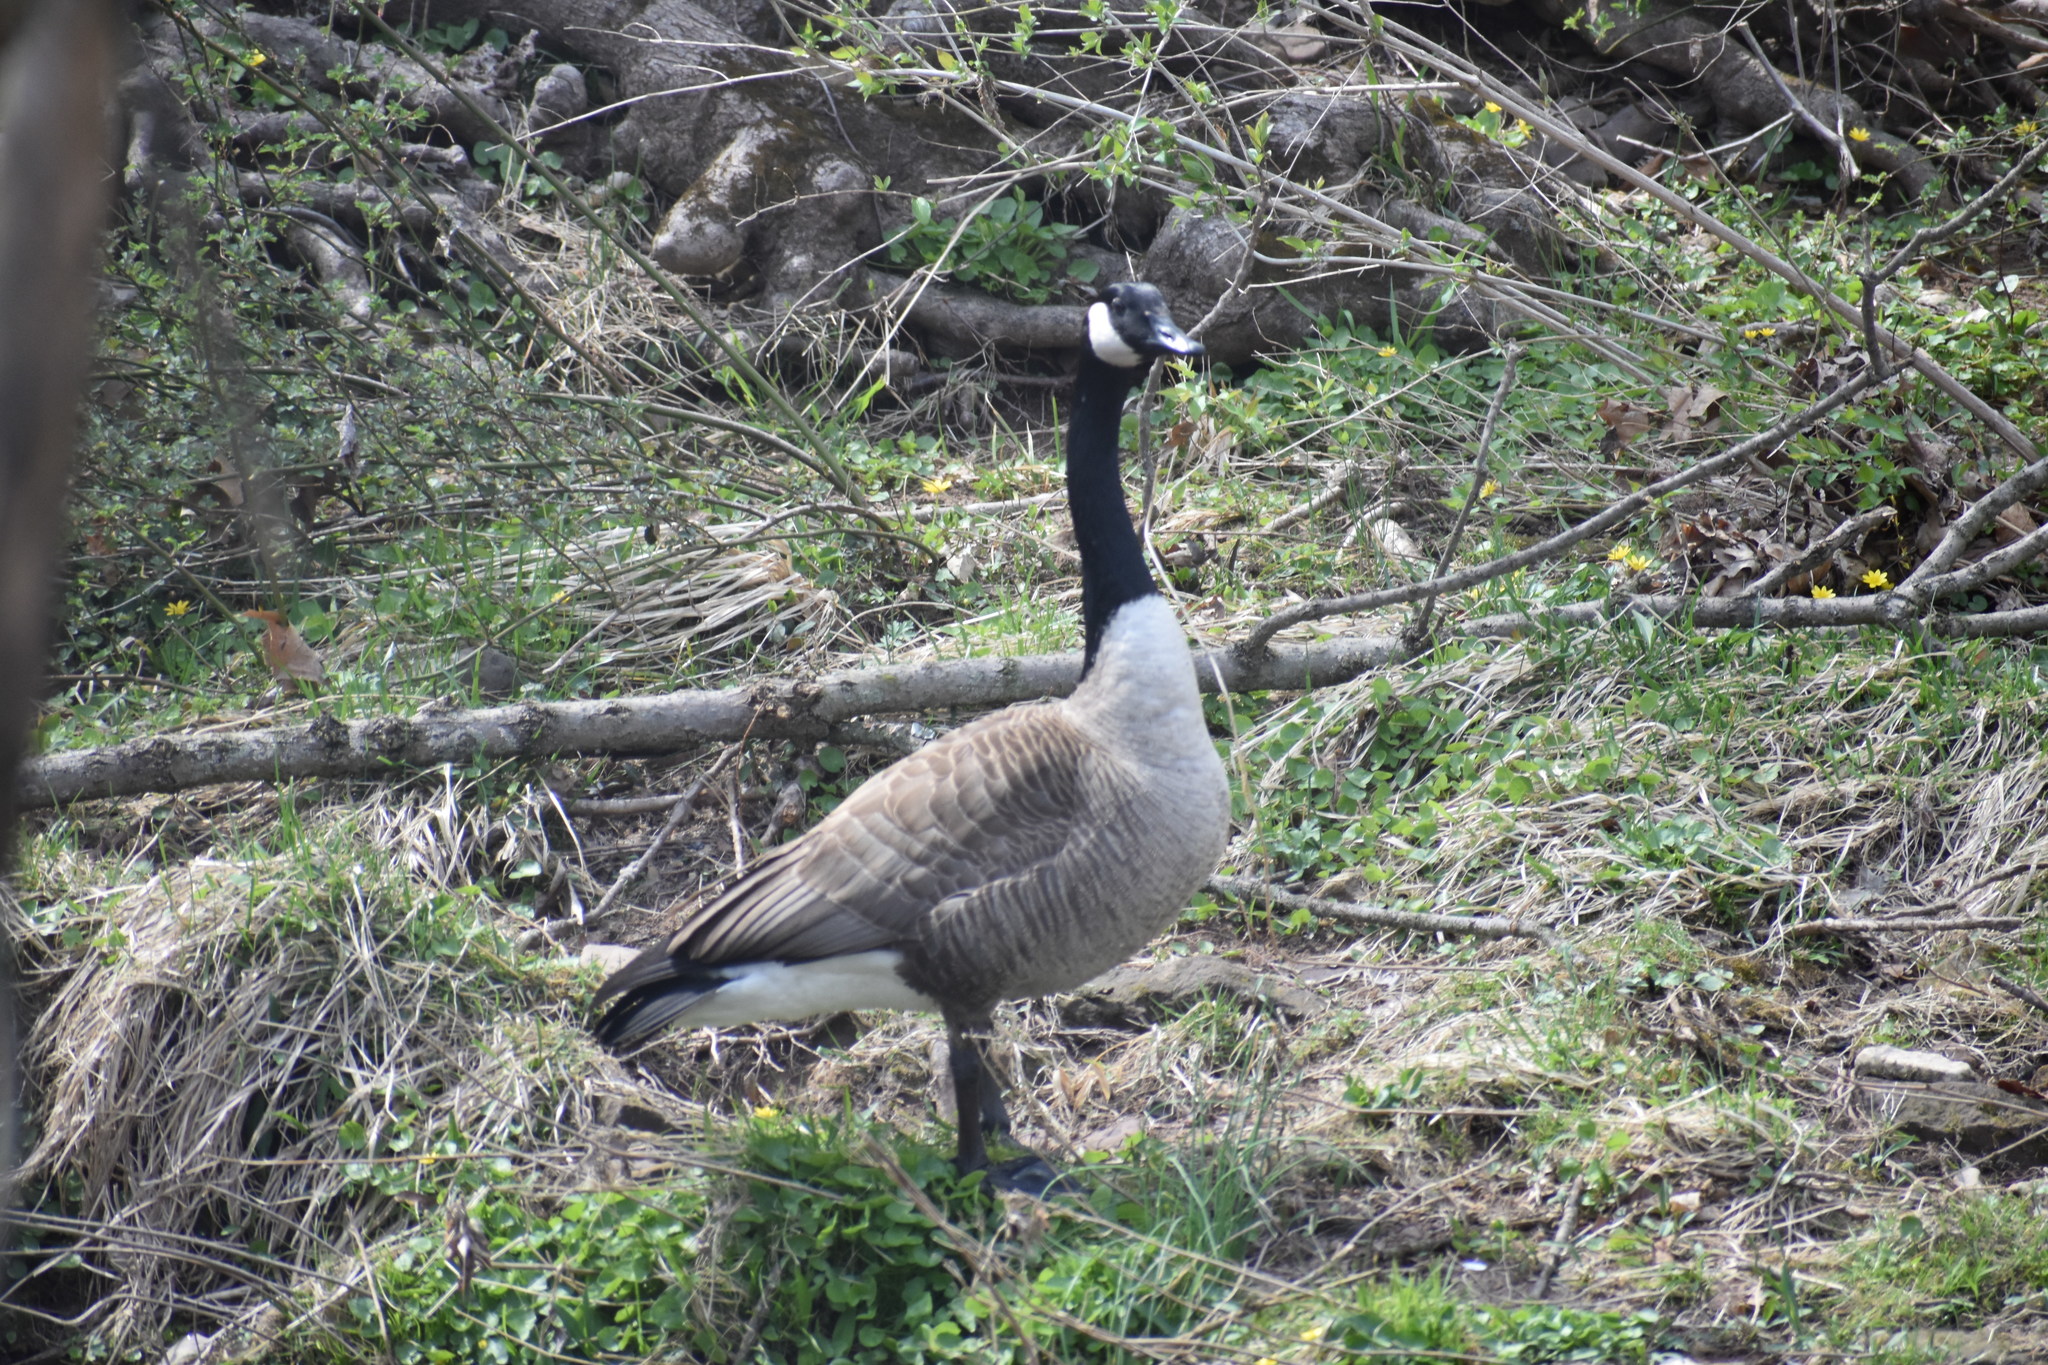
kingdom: Animalia
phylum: Chordata
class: Aves
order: Anseriformes
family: Anatidae
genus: Branta
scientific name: Branta canadensis
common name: Canada goose
